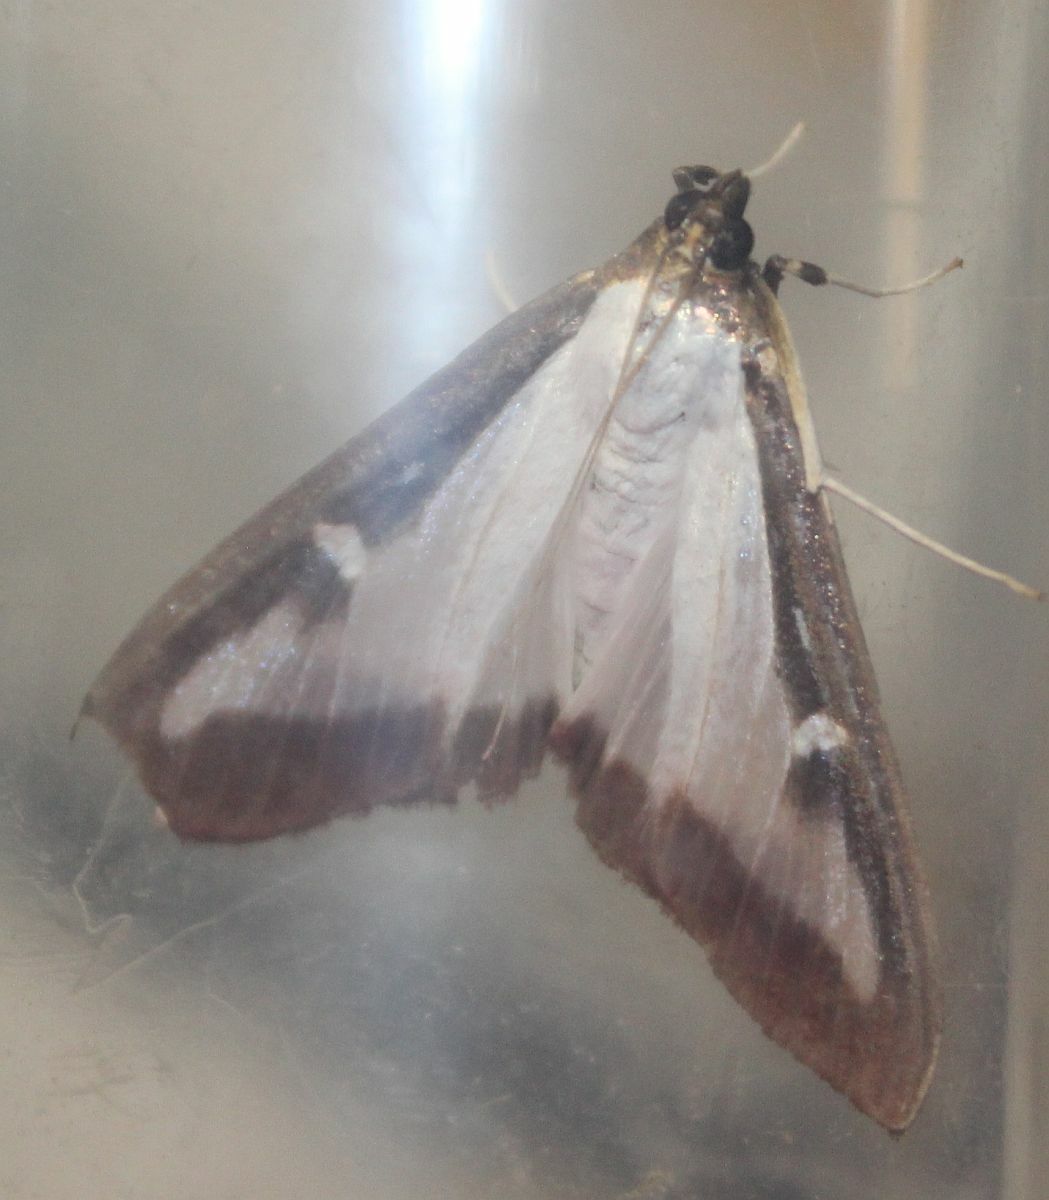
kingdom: Animalia
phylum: Arthropoda
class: Insecta
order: Lepidoptera
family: Crambidae
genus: Cydalima
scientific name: Cydalima perspectalis
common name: Box tree moth
